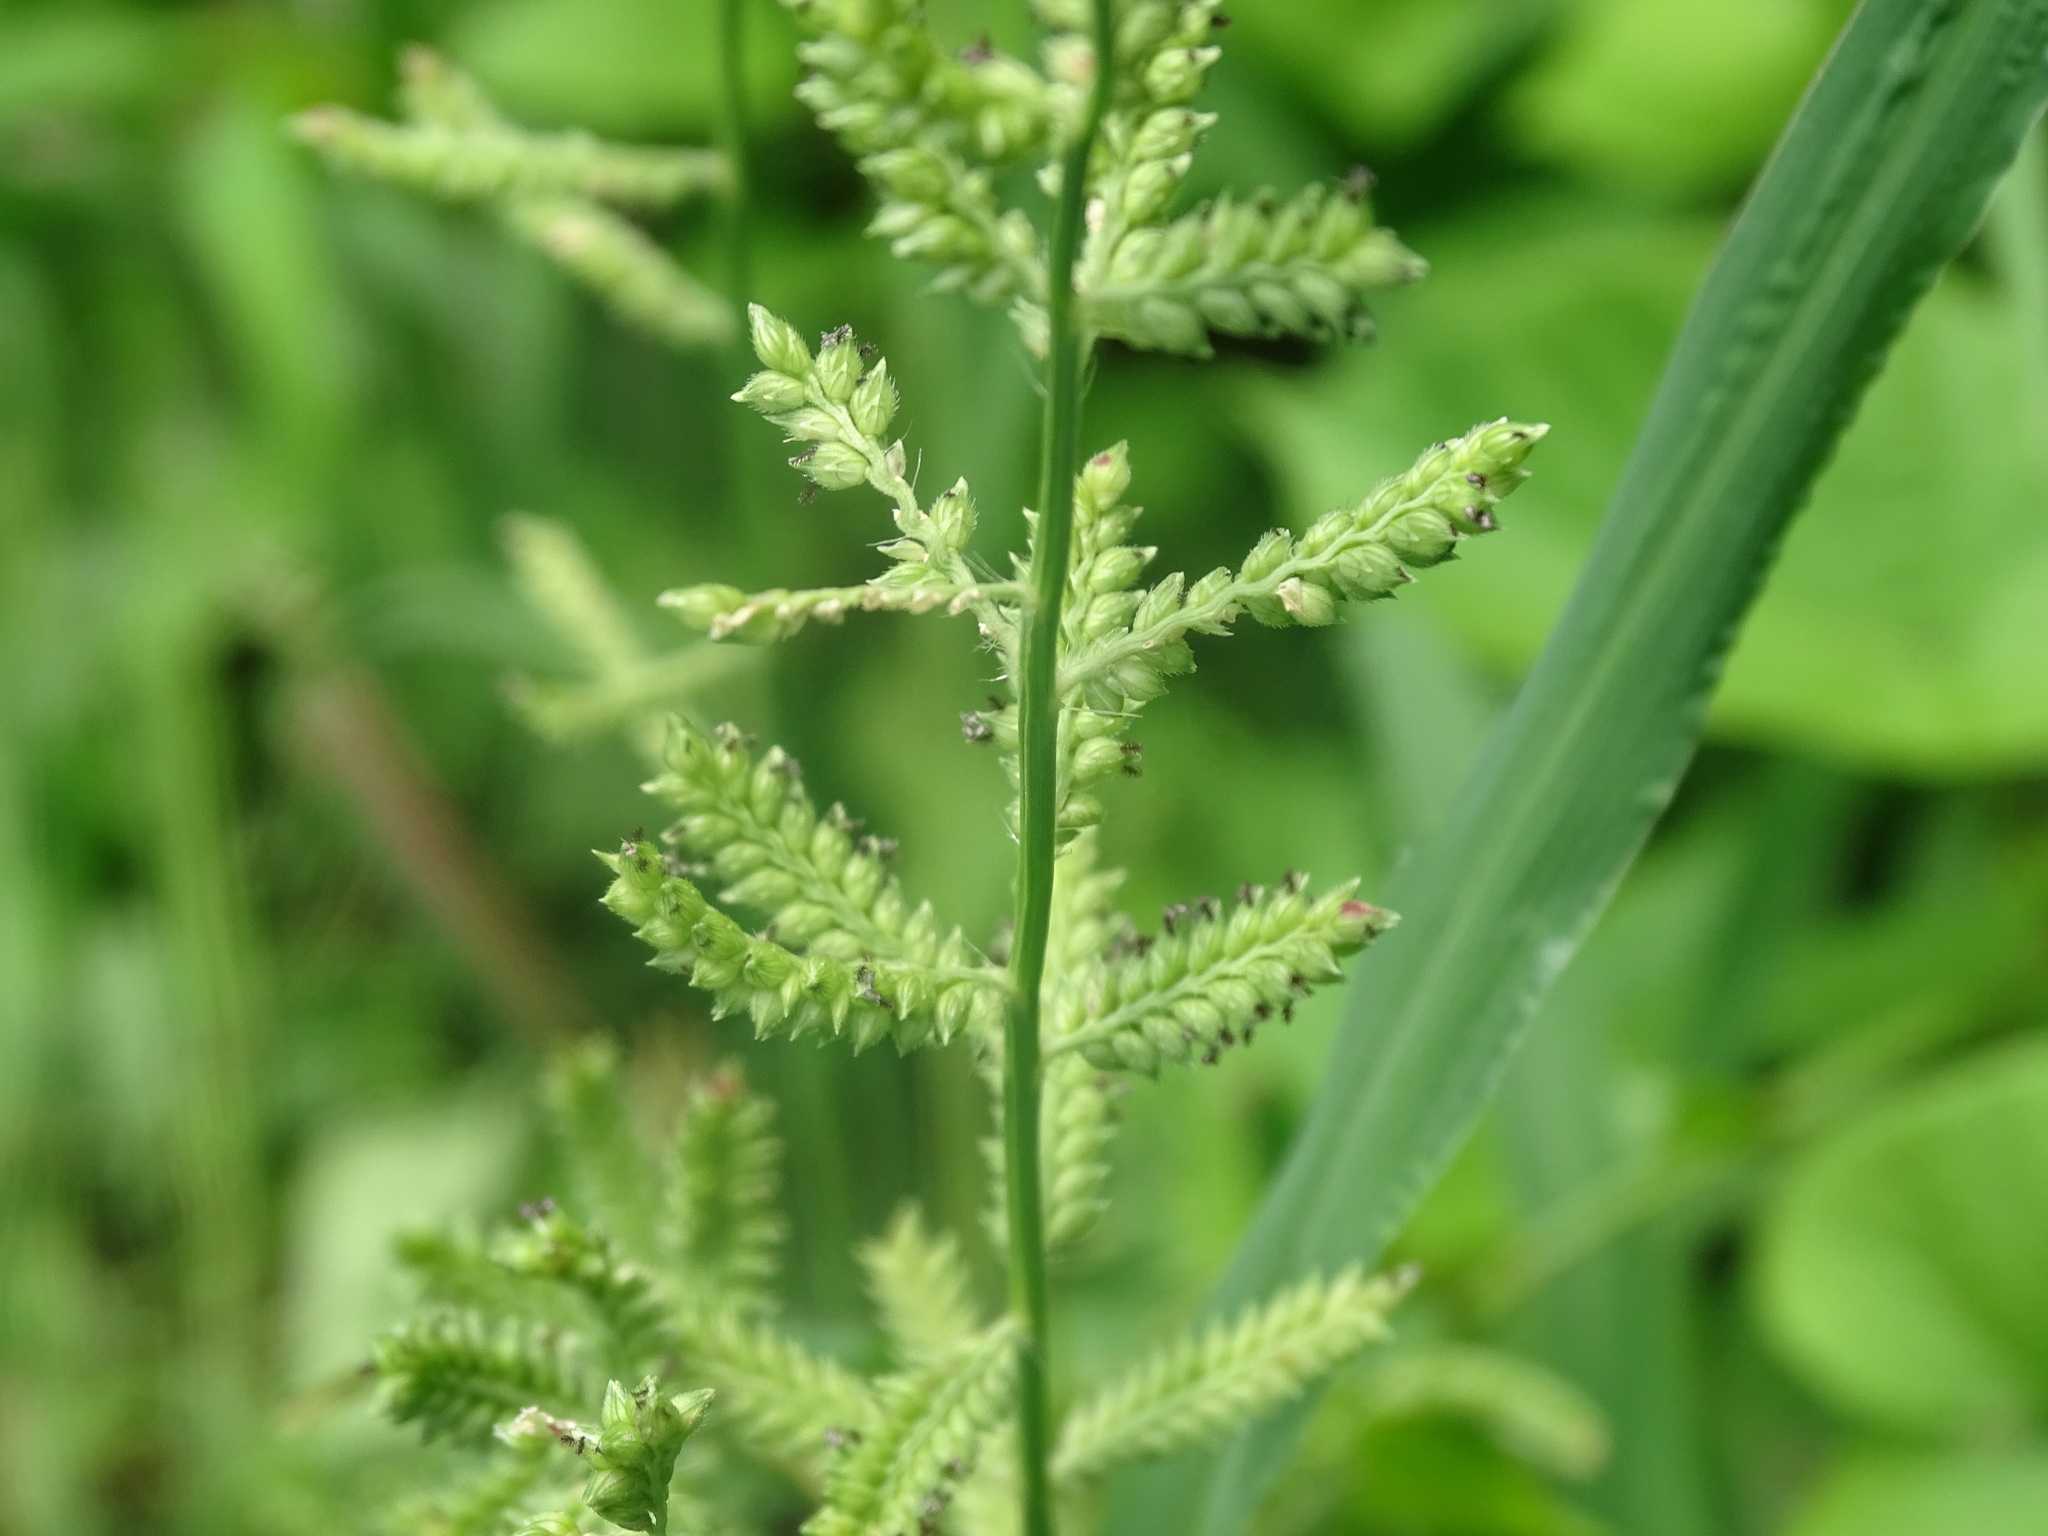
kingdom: Plantae
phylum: Tracheophyta
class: Liliopsida
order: Poales
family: Poaceae
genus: Echinochloa
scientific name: Echinochloa colonum
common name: Jungle rice
